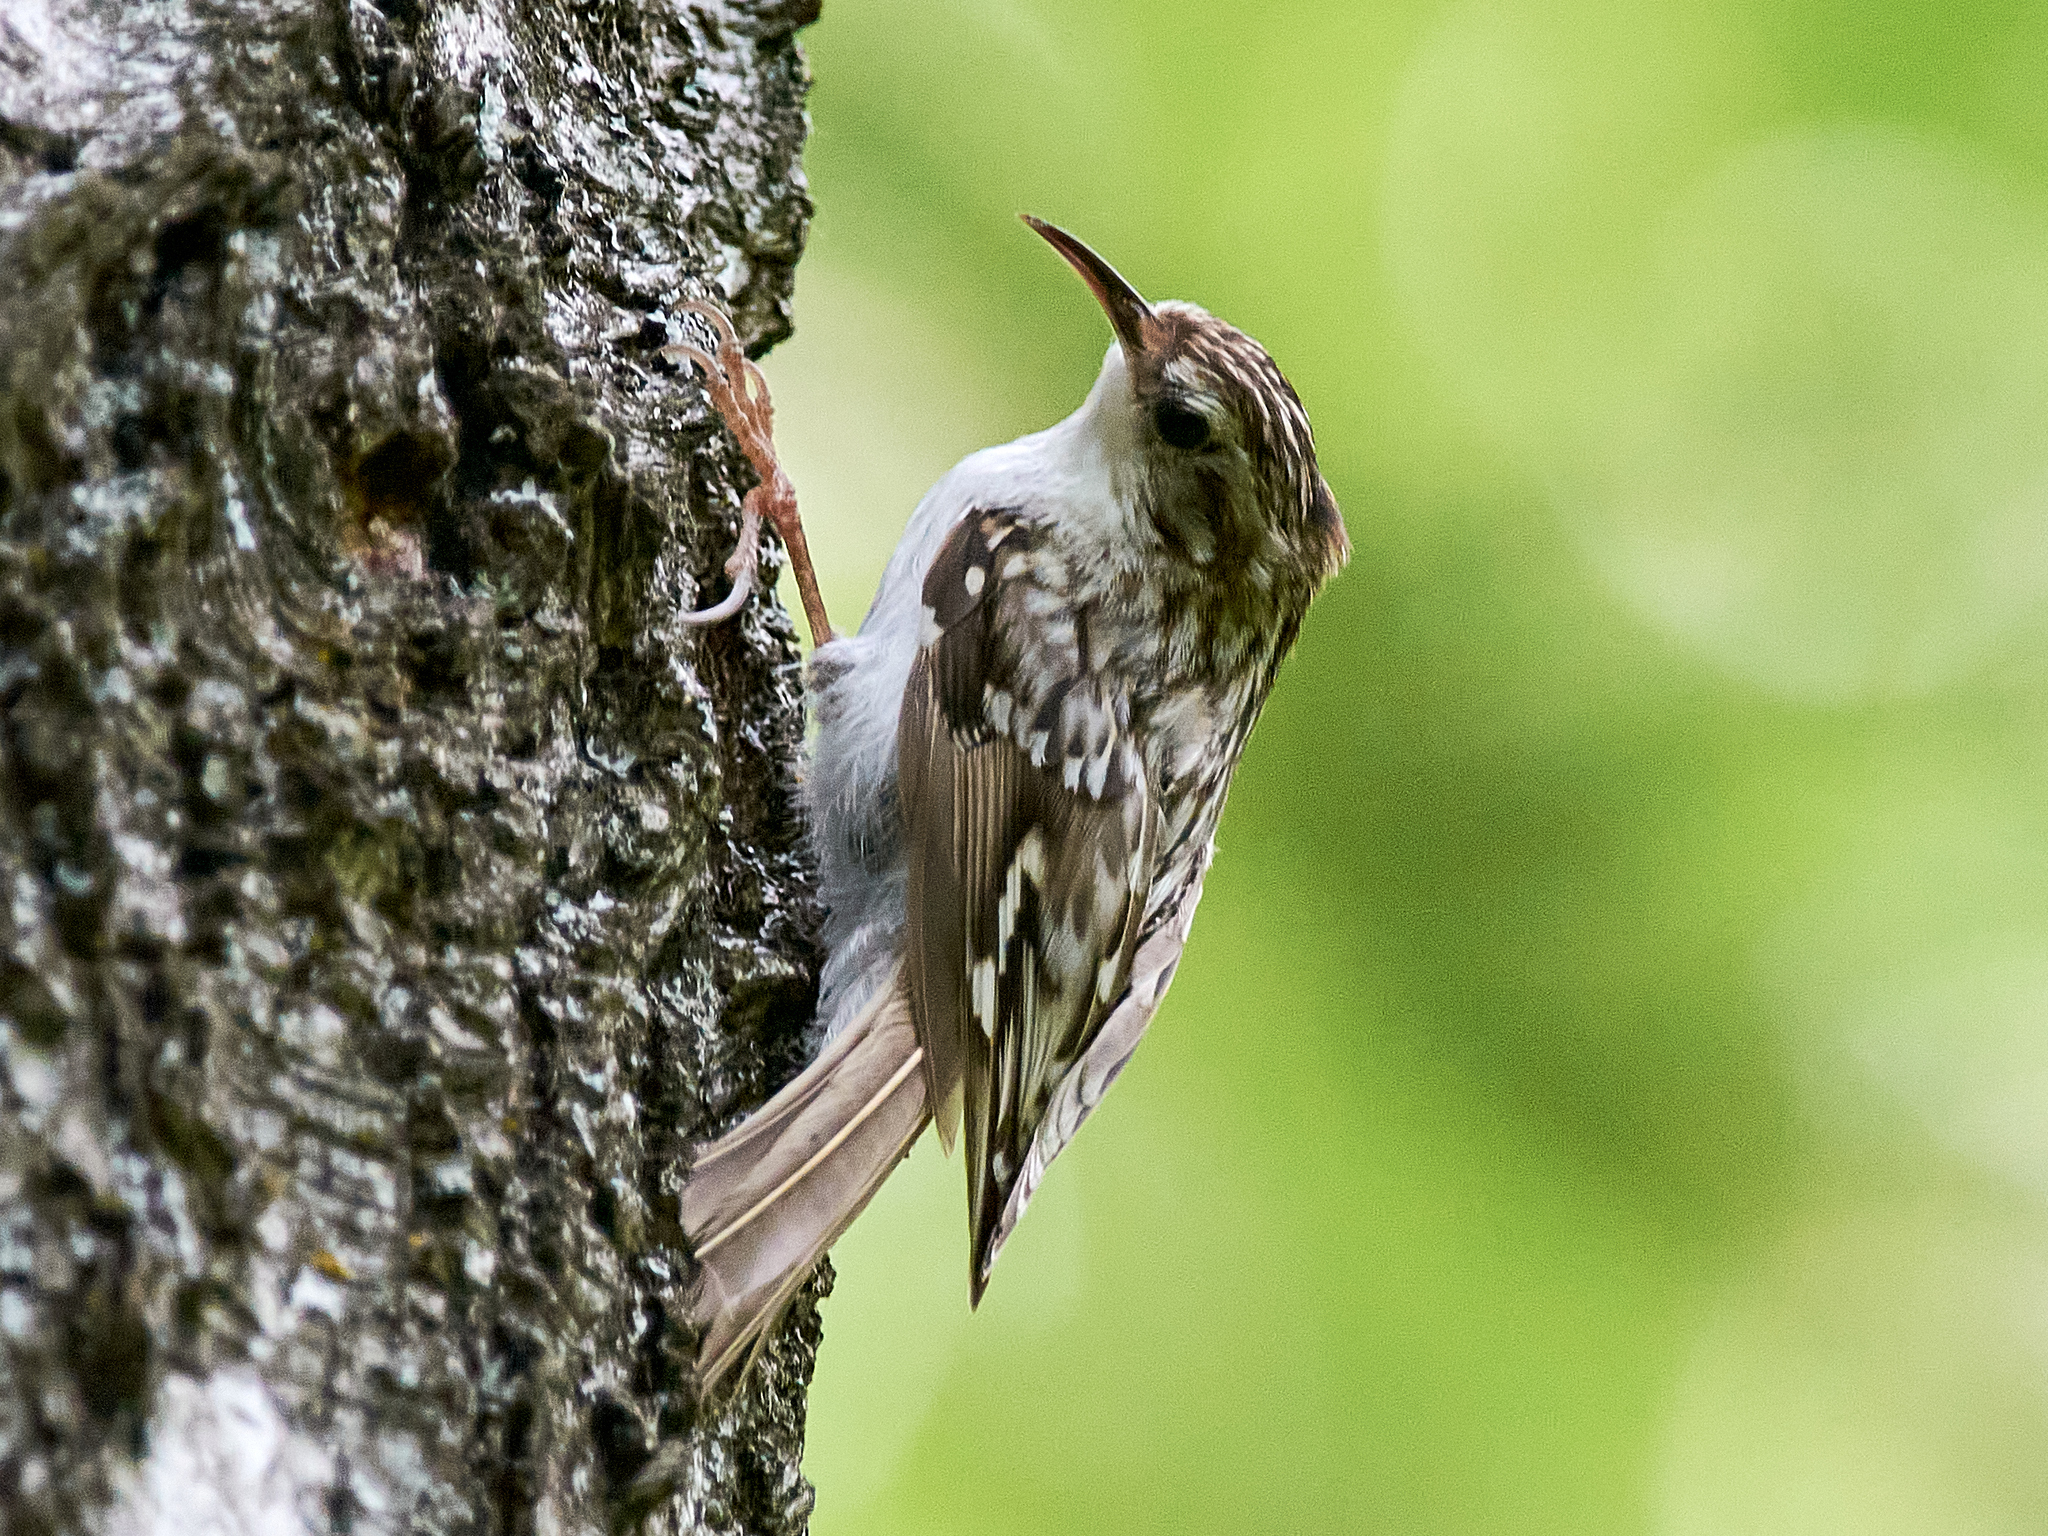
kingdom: Animalia
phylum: Chordata
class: Aves
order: Passeriformes
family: Certhiidae
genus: Certhia
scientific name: Certhia familiaris
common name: Eurasian treecreeper
